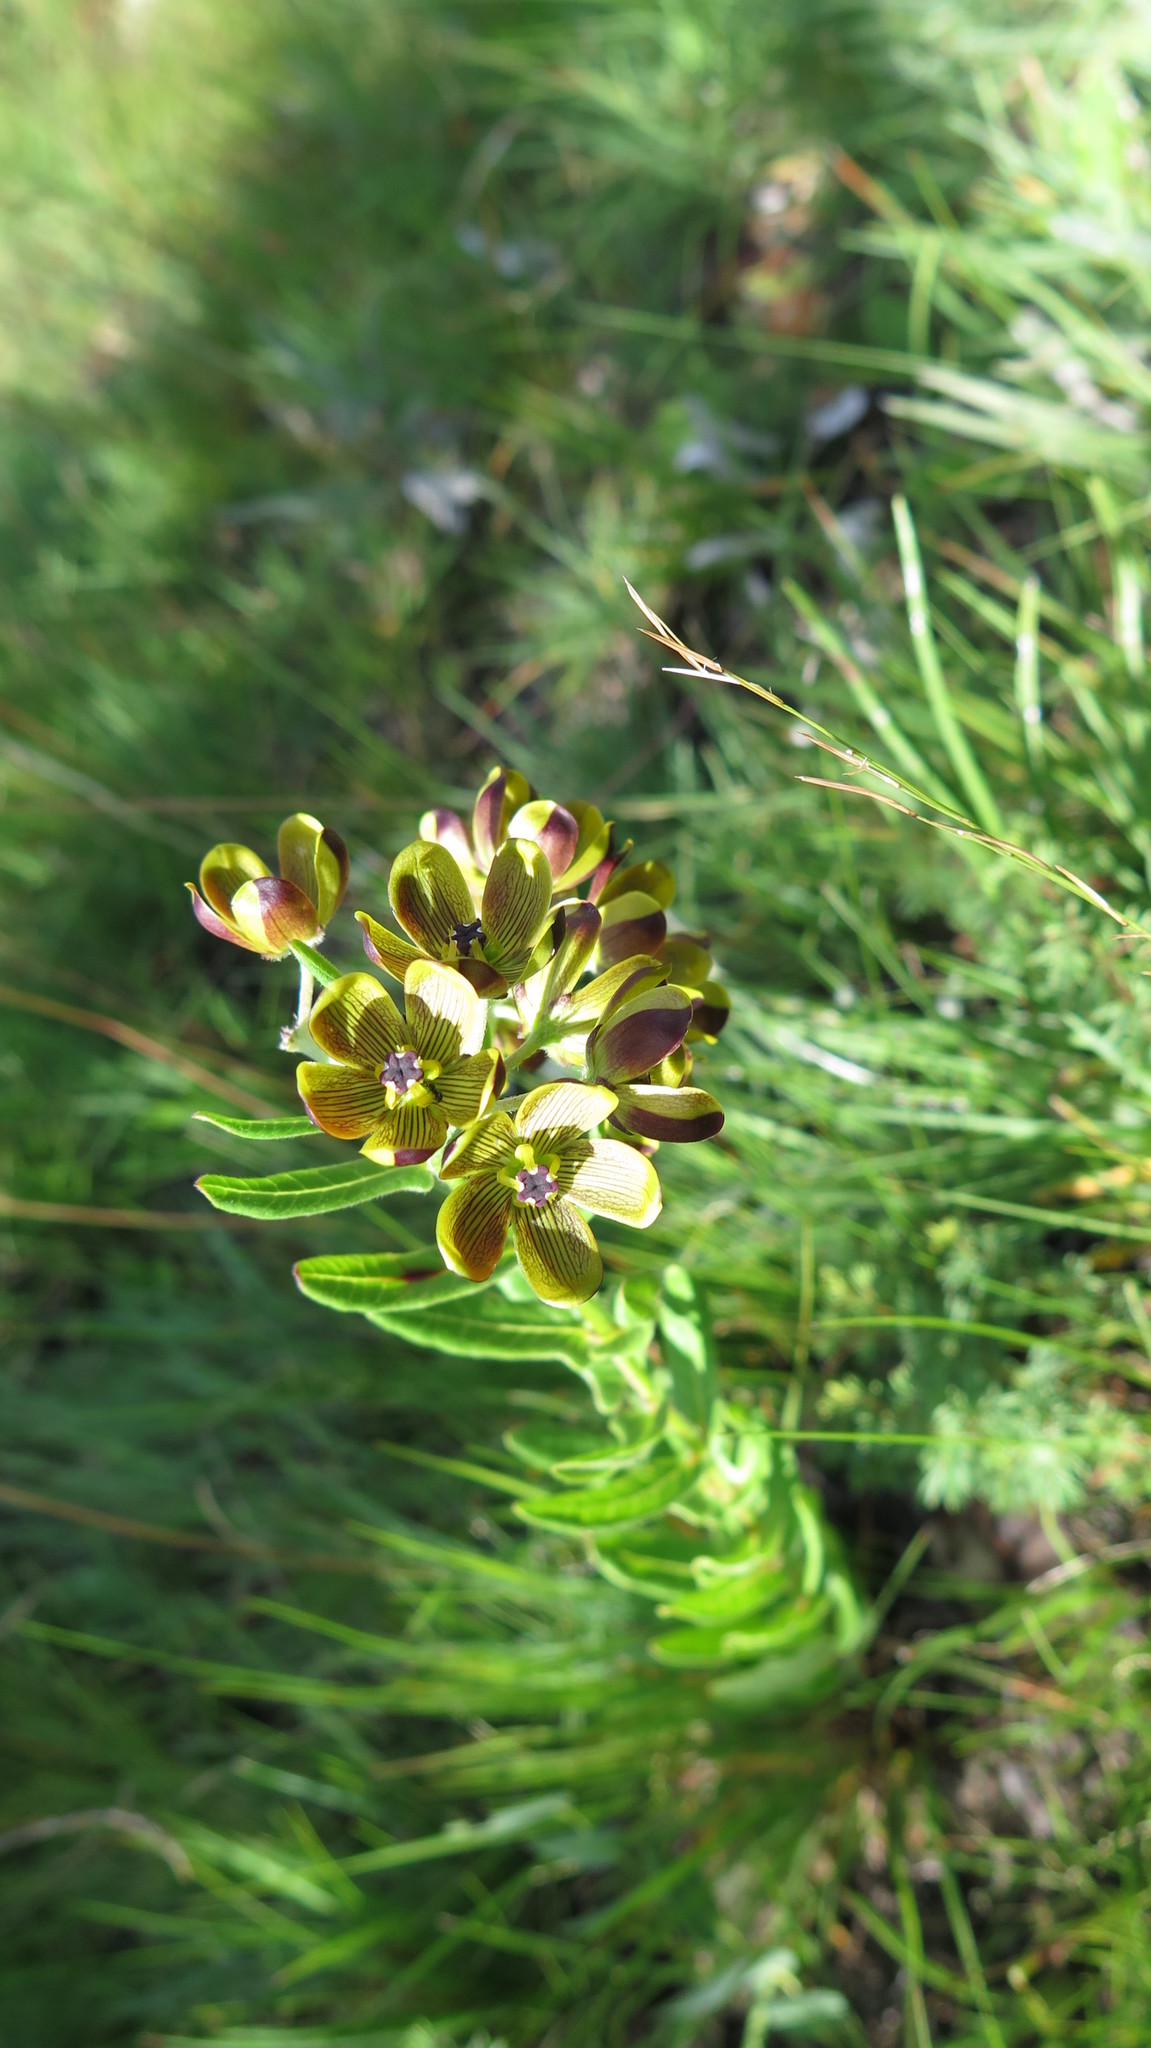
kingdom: Plantae
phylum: Tracheophyta
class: Magnoliopsida
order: Gentianales
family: Apocynaceae
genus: Schizoglossum
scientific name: Schizoglossum hamatum
